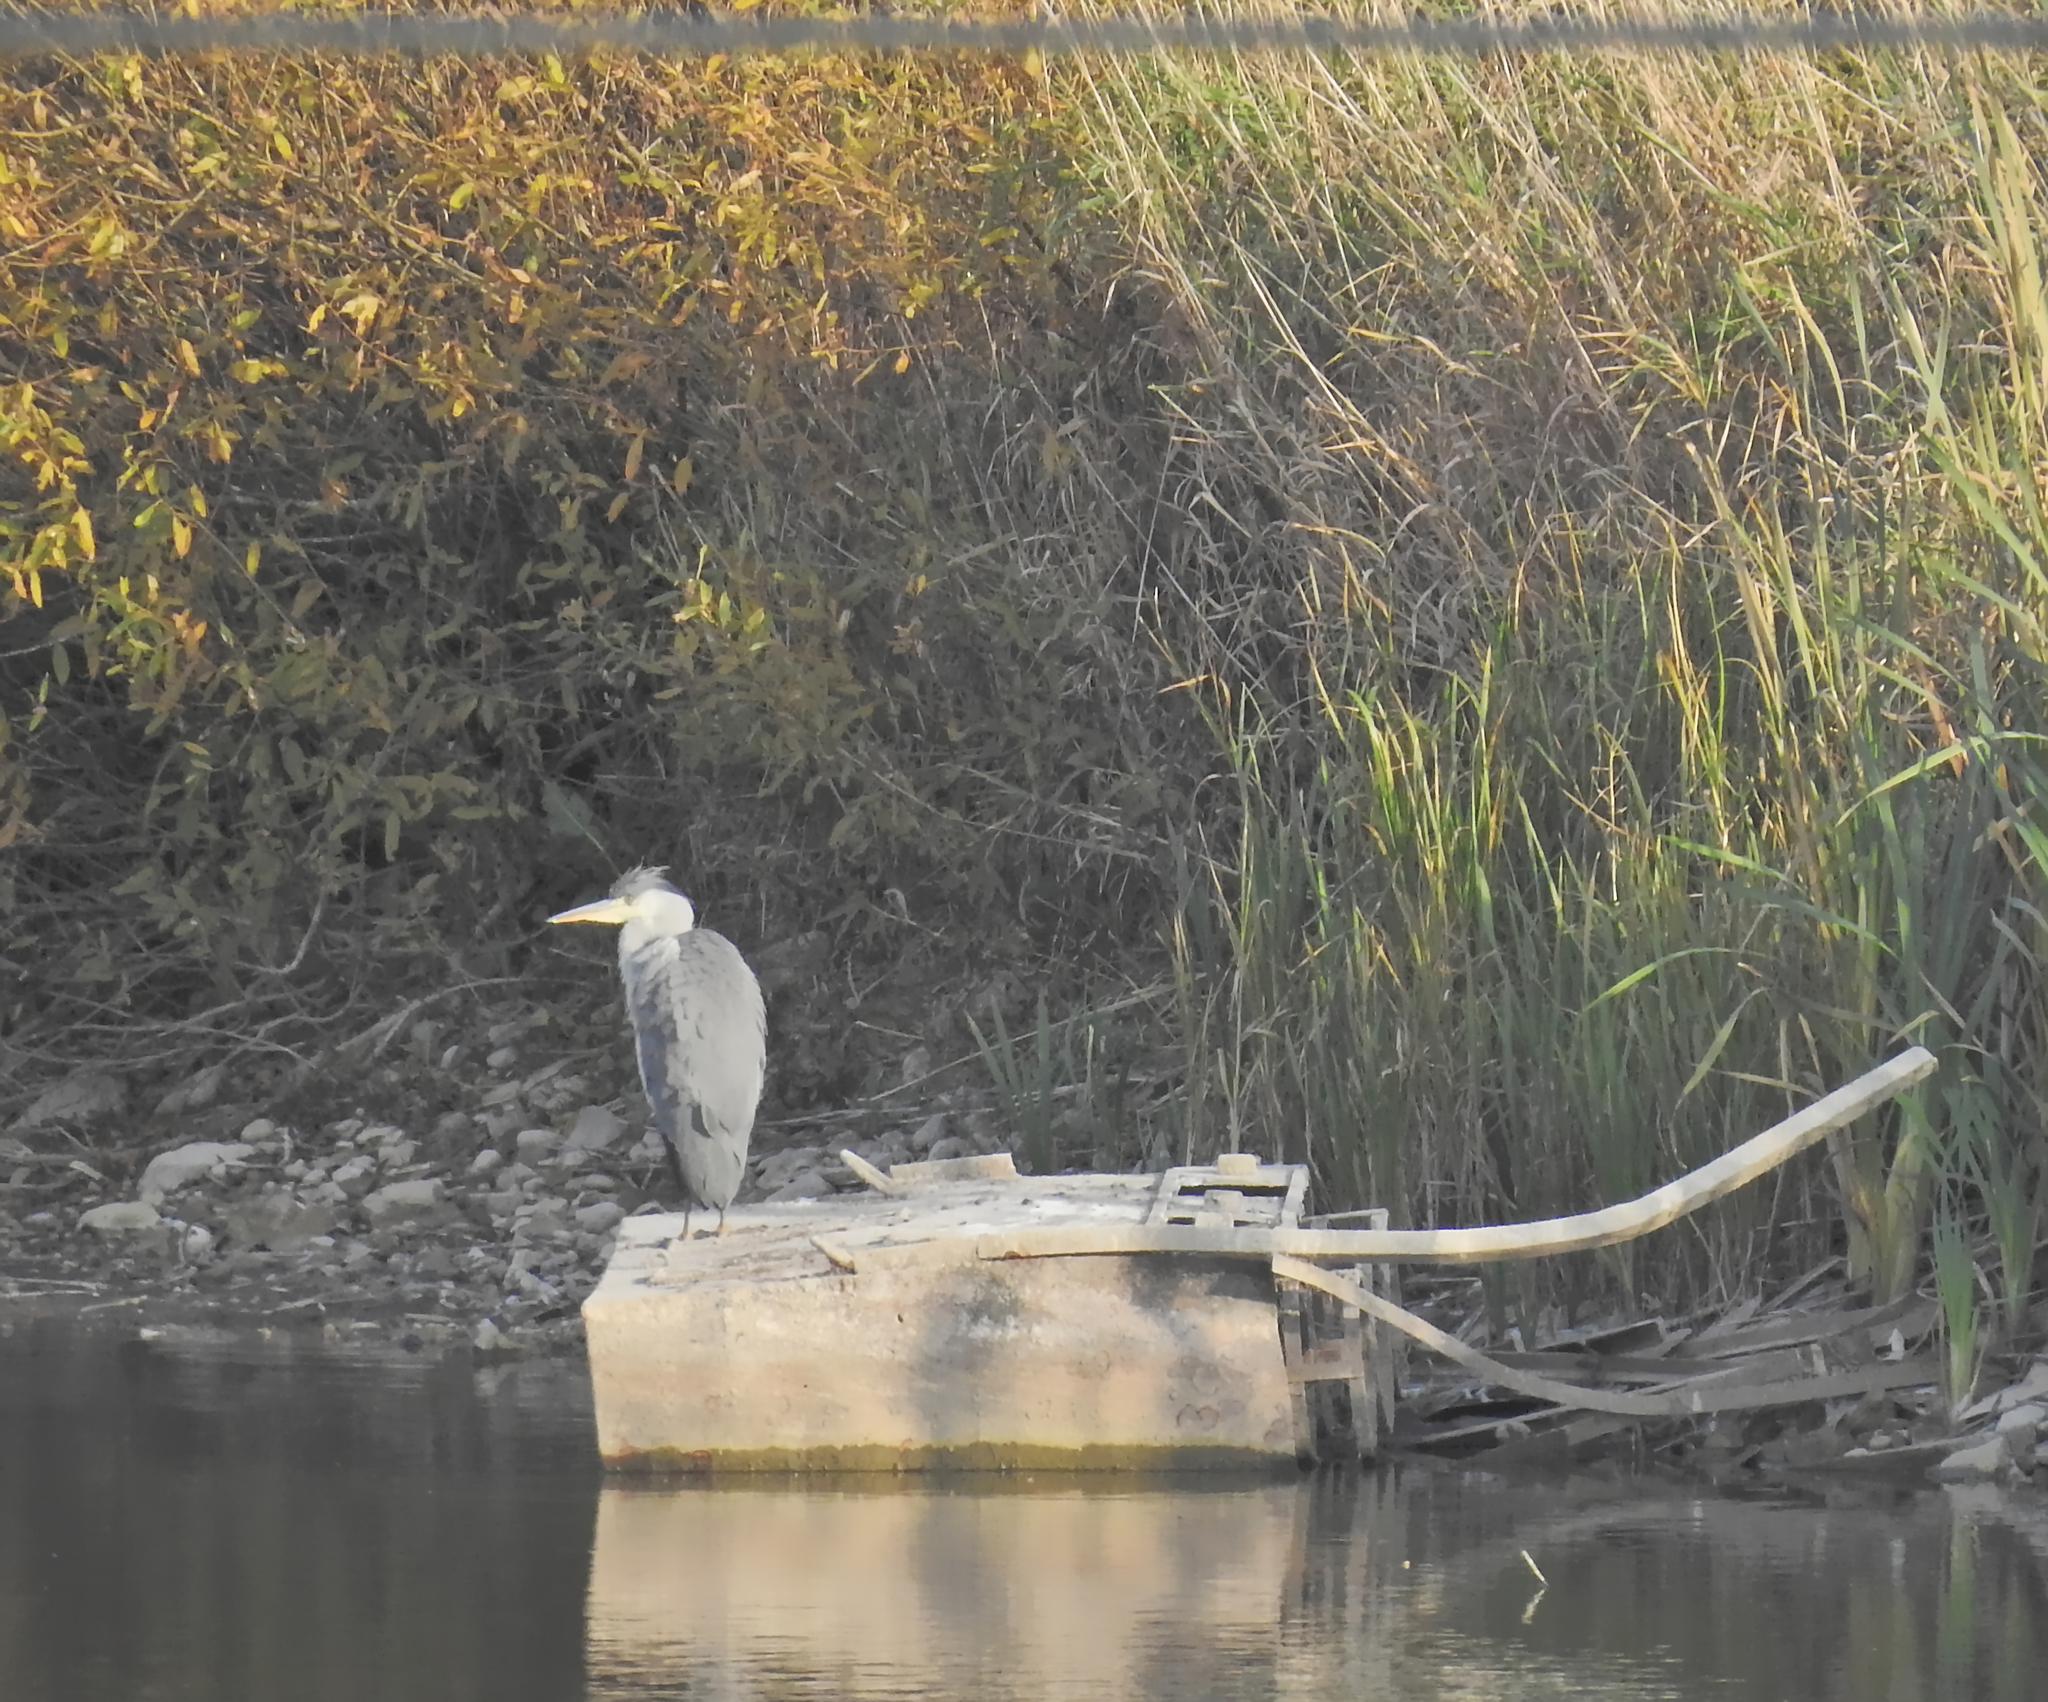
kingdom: Animalia
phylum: Chordata
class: Aves
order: Pelecaniformes
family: Ardeidae
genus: Ardea
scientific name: Ardea cinerea
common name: Grey heron
